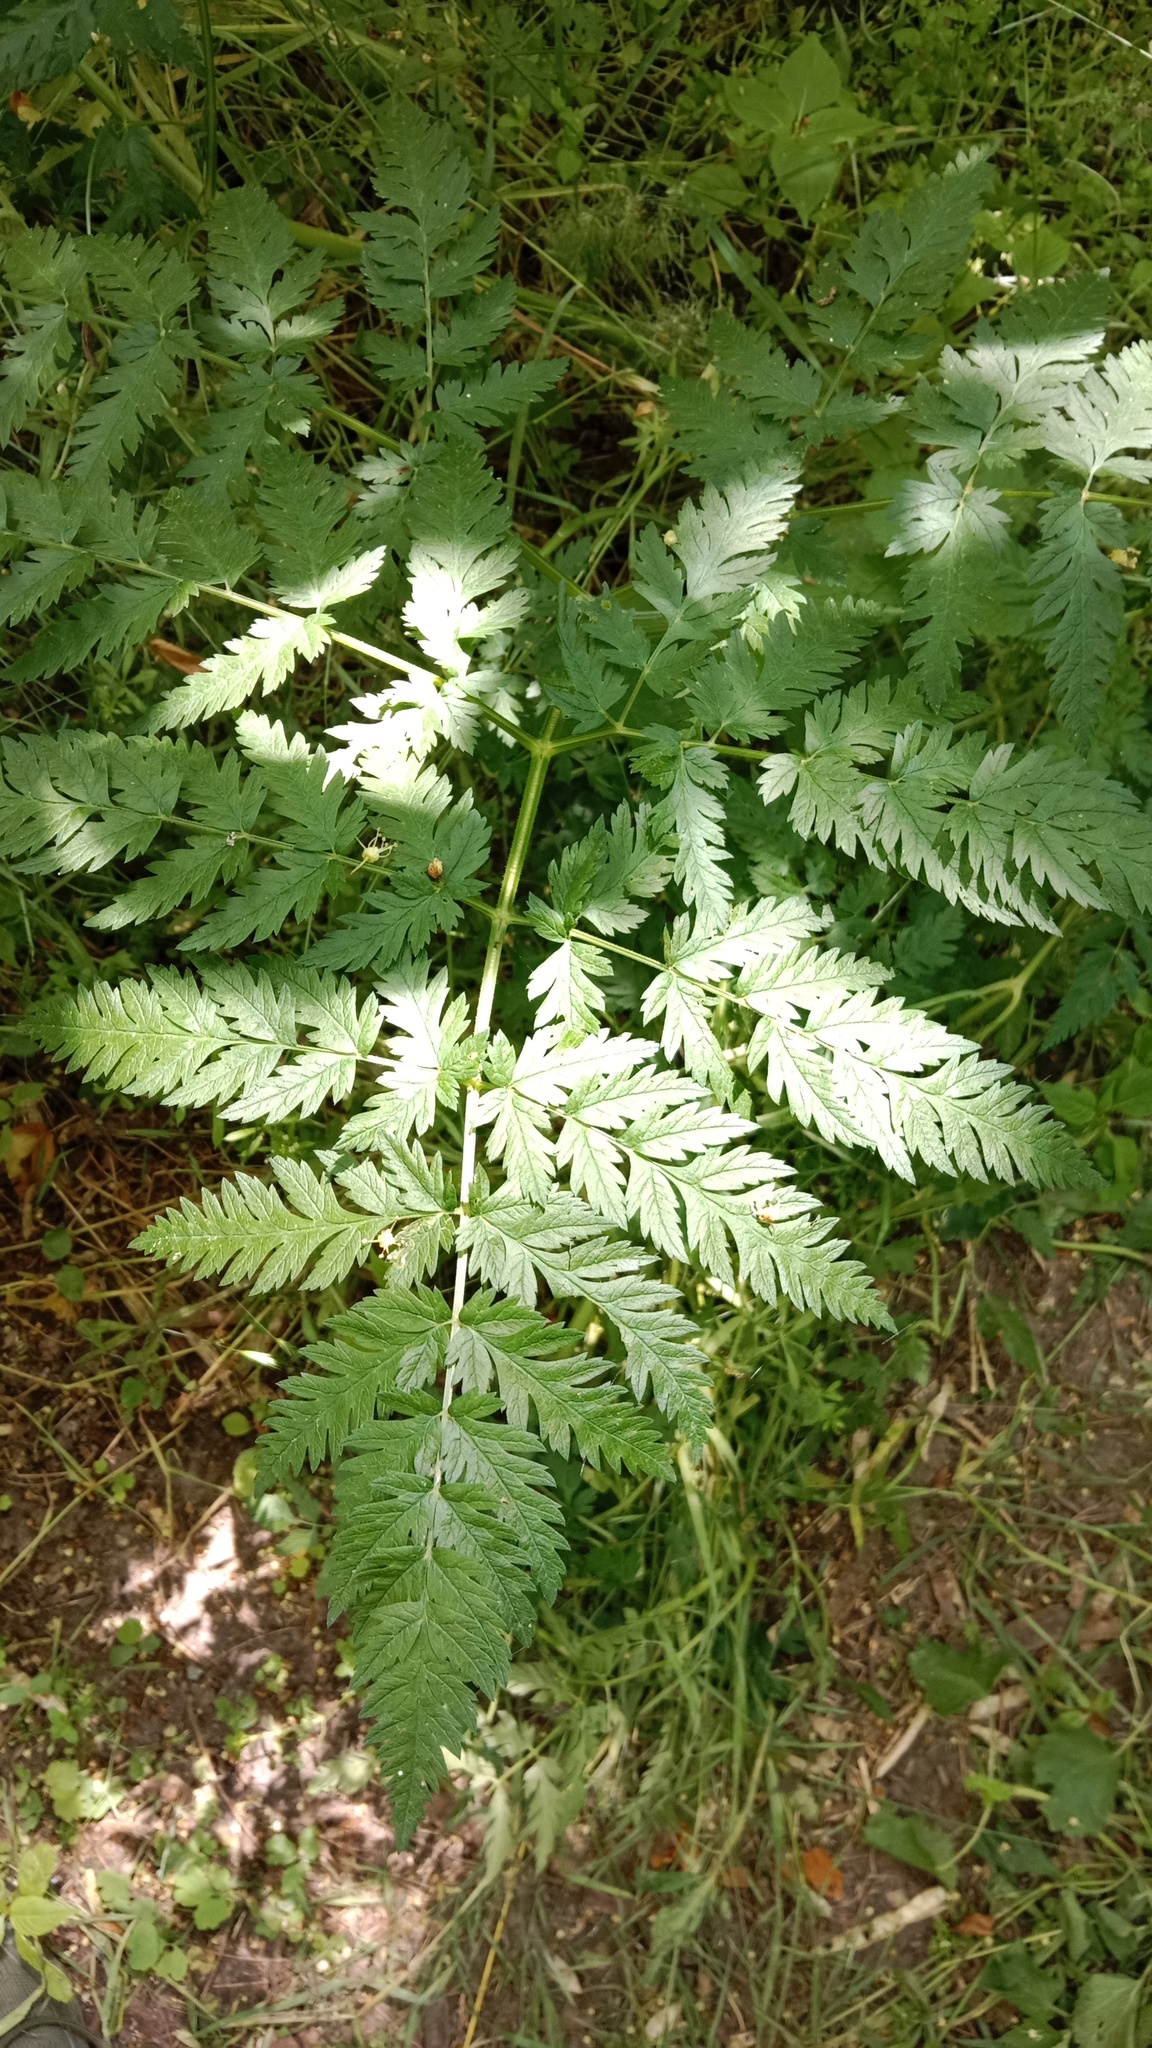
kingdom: Plantae
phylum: Tracheophyta
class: Magnoliopsida
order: Apiales
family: Apiaceae
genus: Anthriscus
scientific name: Anthriscus sylvestris
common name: Cow parsley
